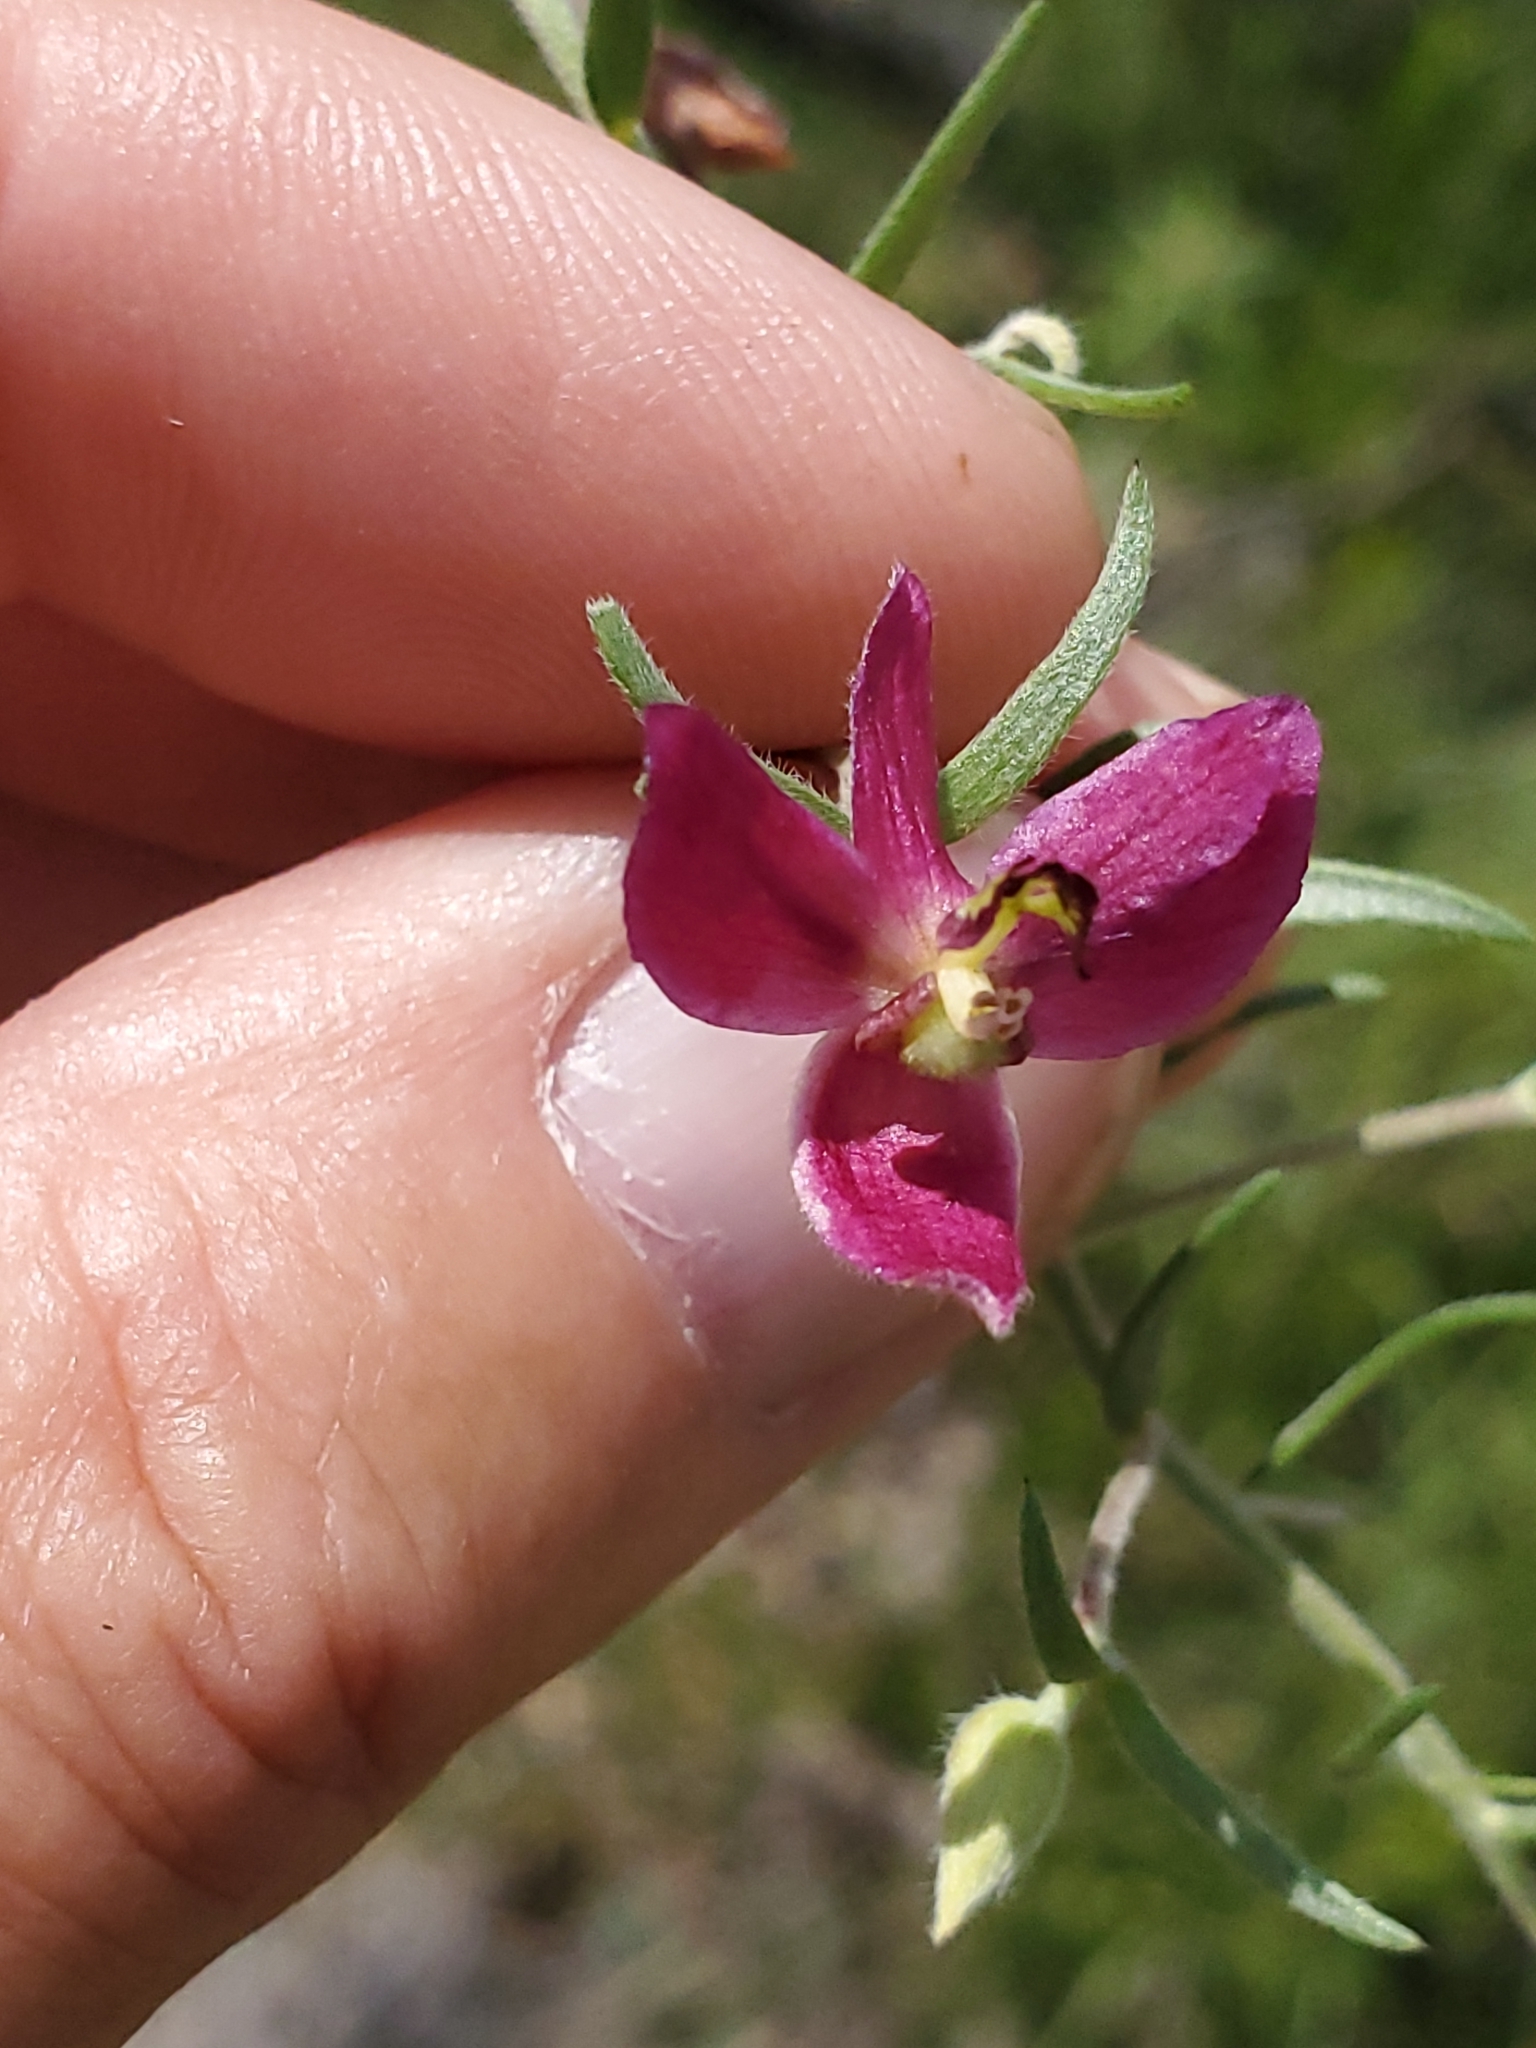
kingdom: Plantae
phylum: Tracheophyta
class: Magnoliopsida
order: Zygophyllales
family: Krameriaceae
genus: Krameria
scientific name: Krameria lanceolata
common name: Ratany
